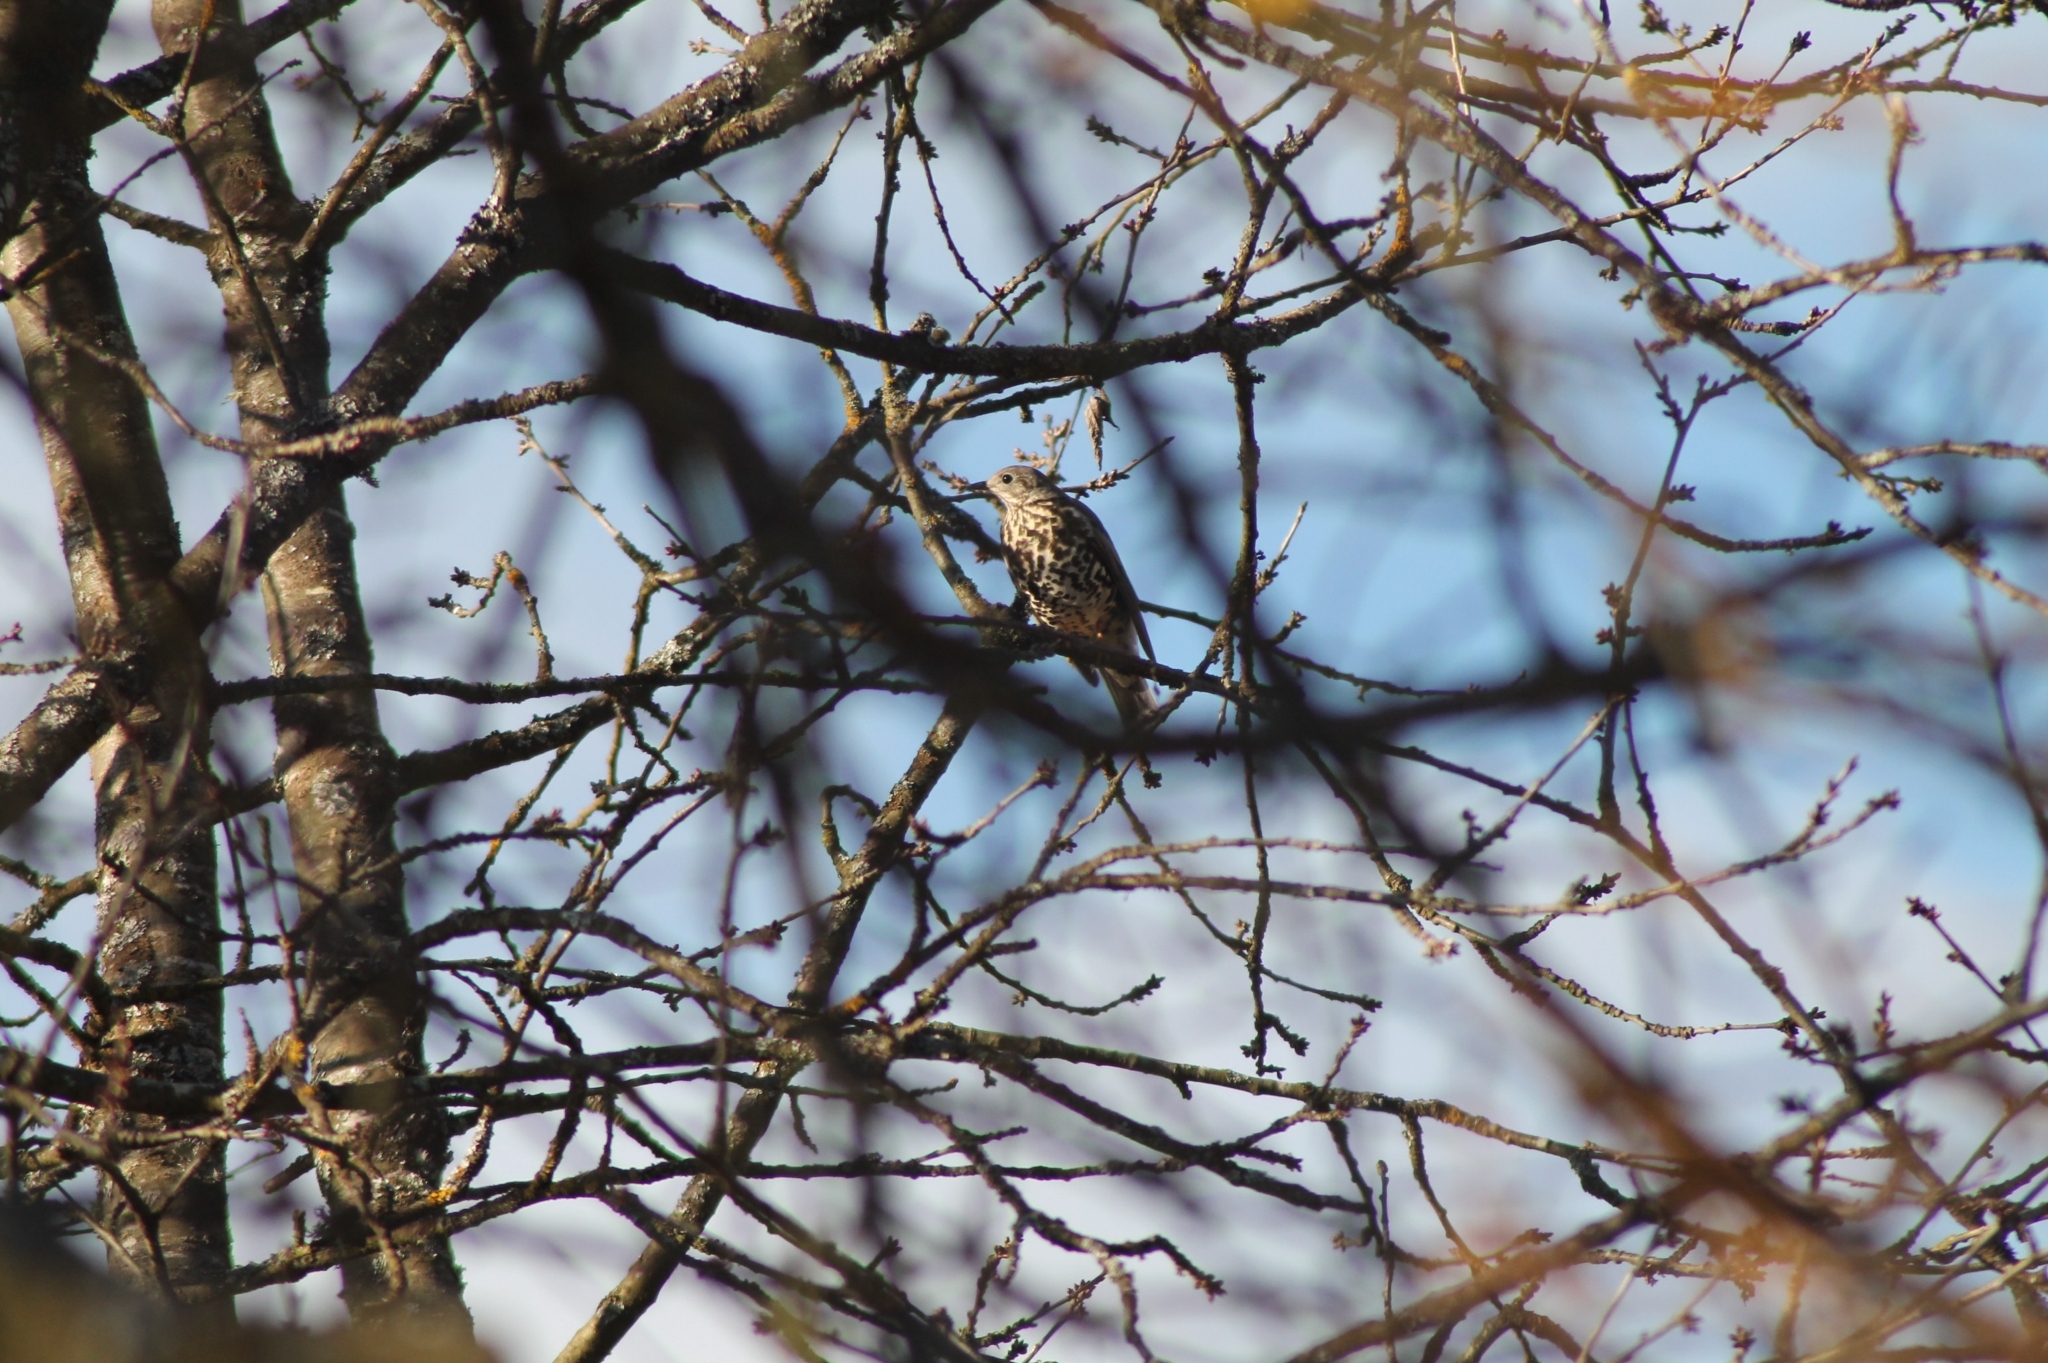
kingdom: Animalia
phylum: Chordata
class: Aves
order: Passeriformes
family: Turdidae
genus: Turdus
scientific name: Turdus viscivorus
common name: Mistle thrush
